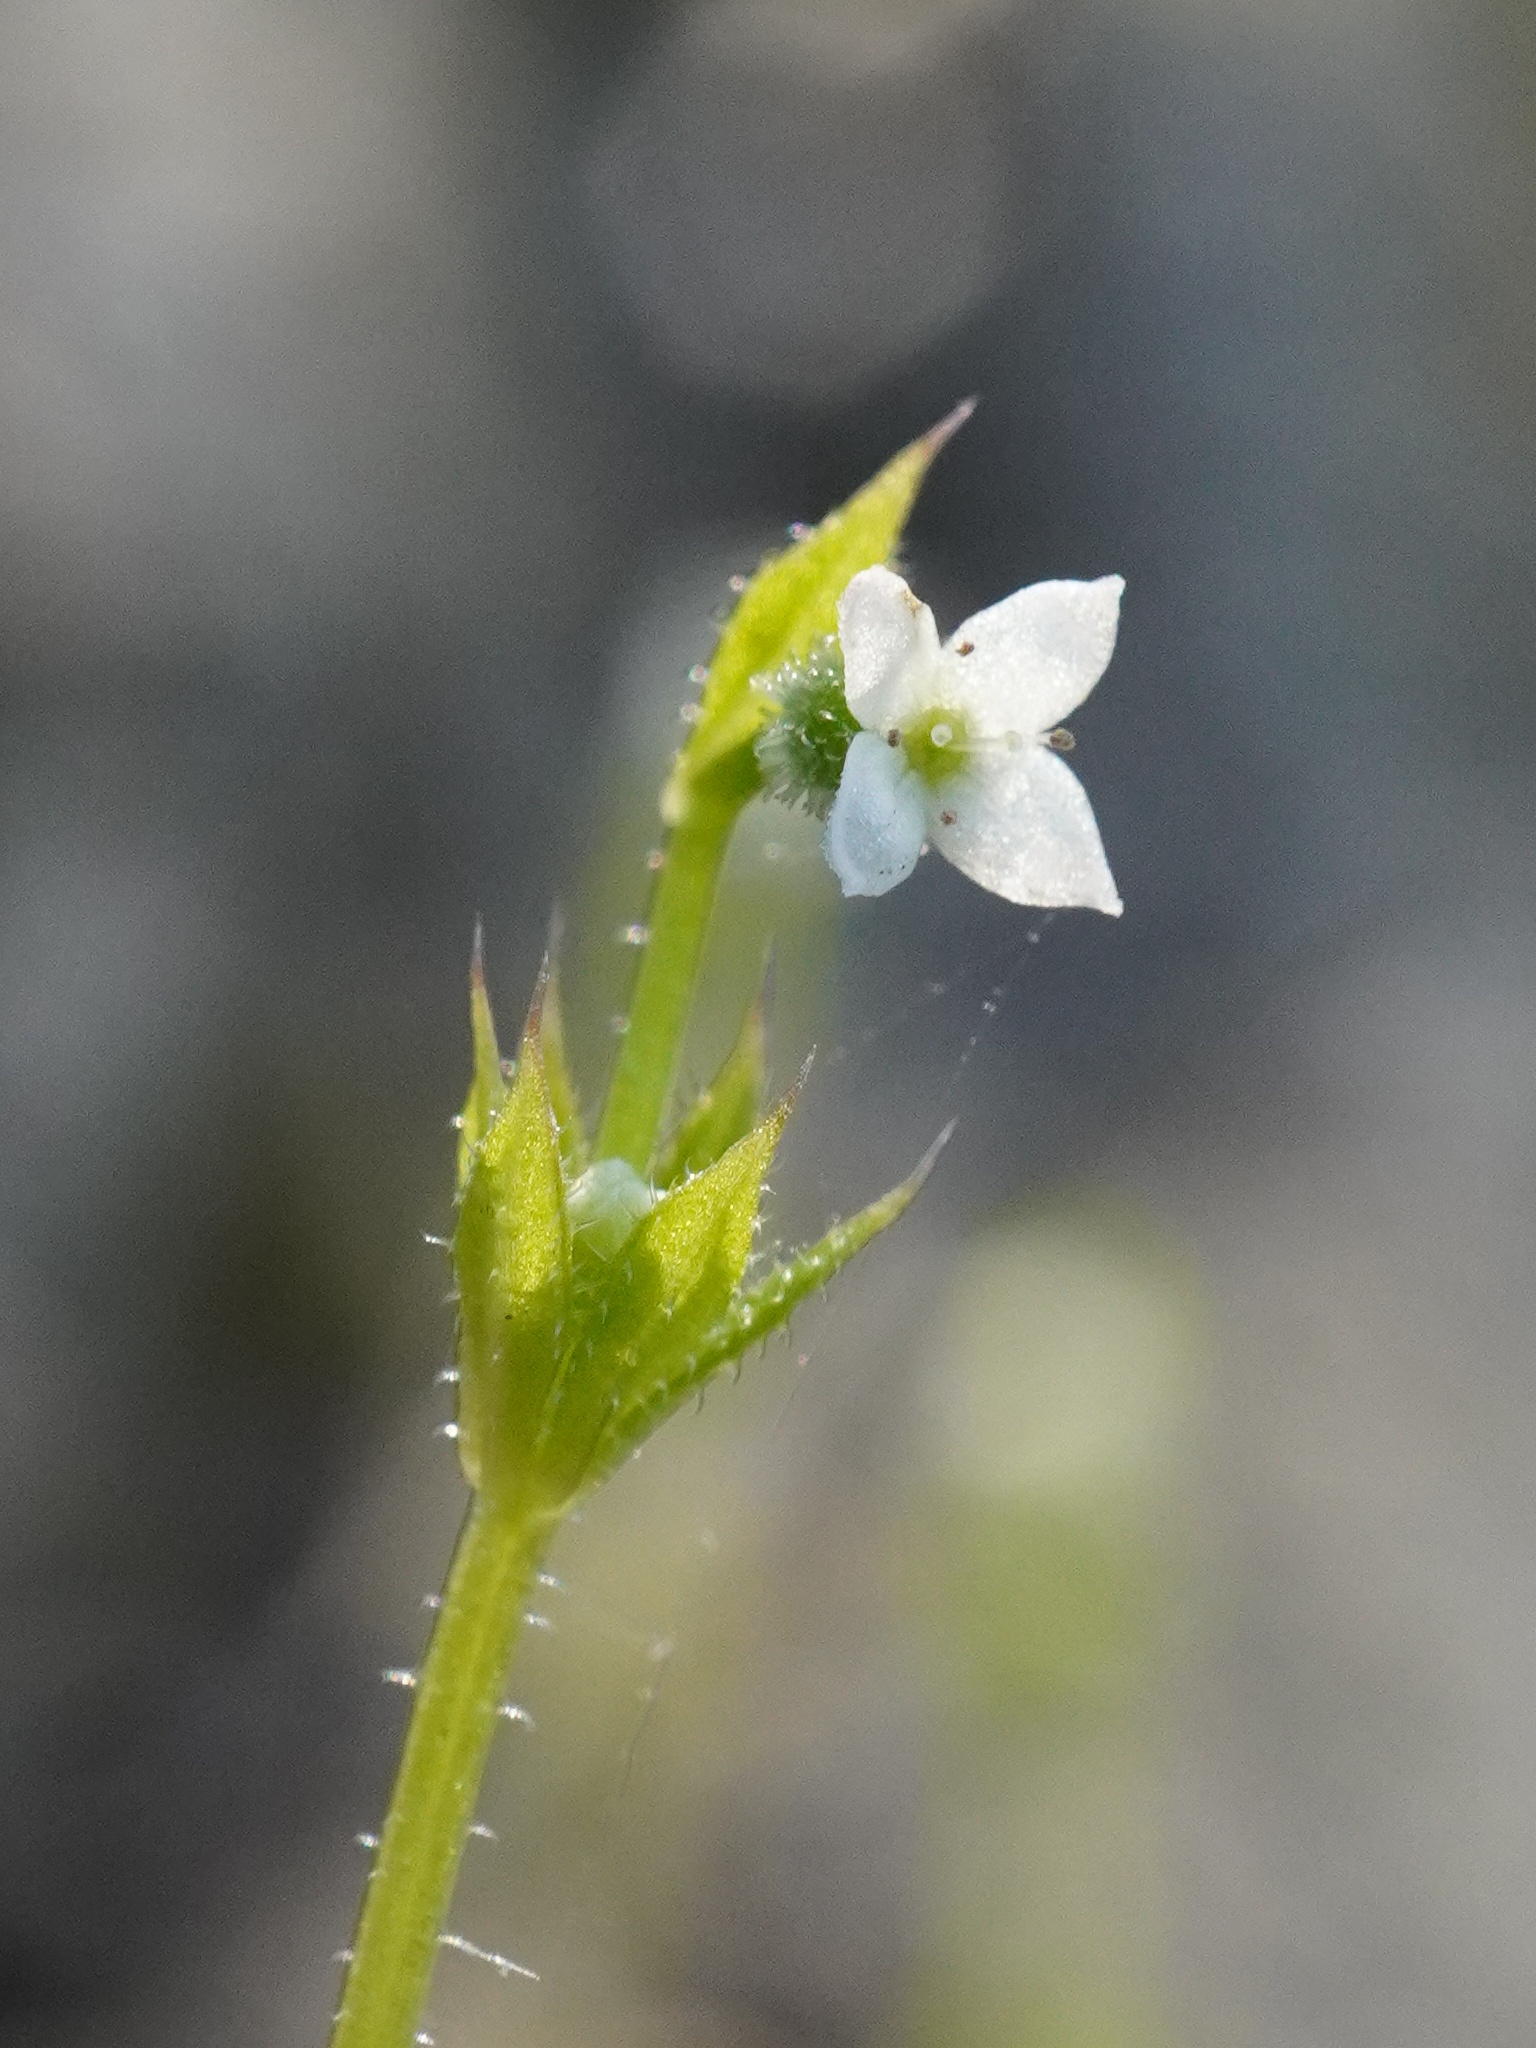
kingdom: Plantae
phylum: Tracheophyta
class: Magnoliopsida
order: Gentianales
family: Rubiaceae
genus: Galium
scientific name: Galium aparine
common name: Cleavers
